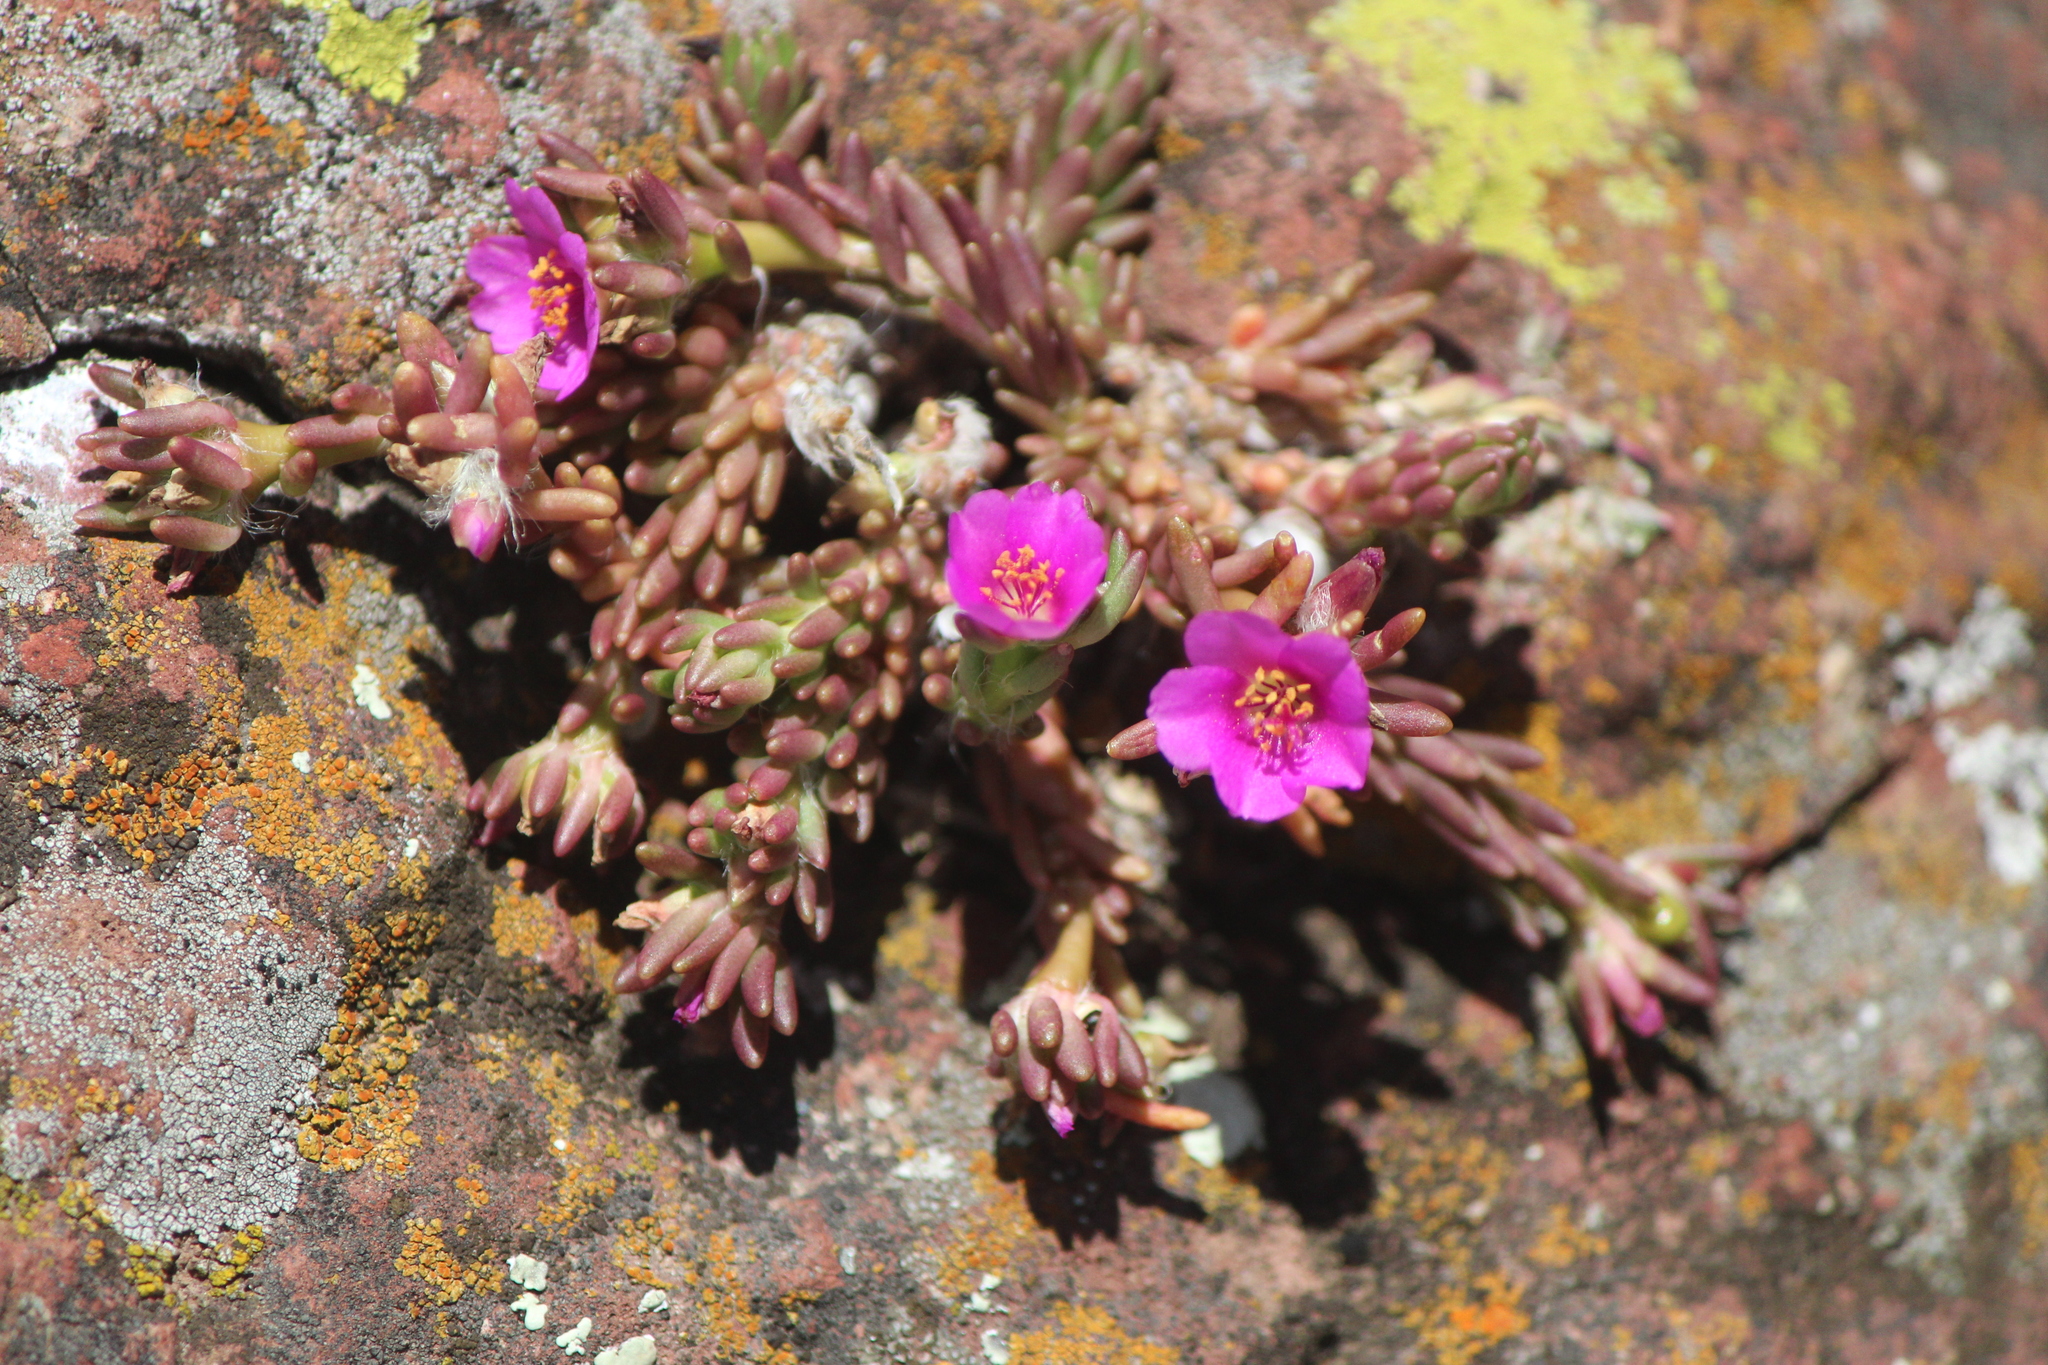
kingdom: Plantae
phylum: Tracheophyta
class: Magnoliopsida
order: Caryophyllales
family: Portulacaceae
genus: Portulaca
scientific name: Portulaca pilosa
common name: Kiss me quick
